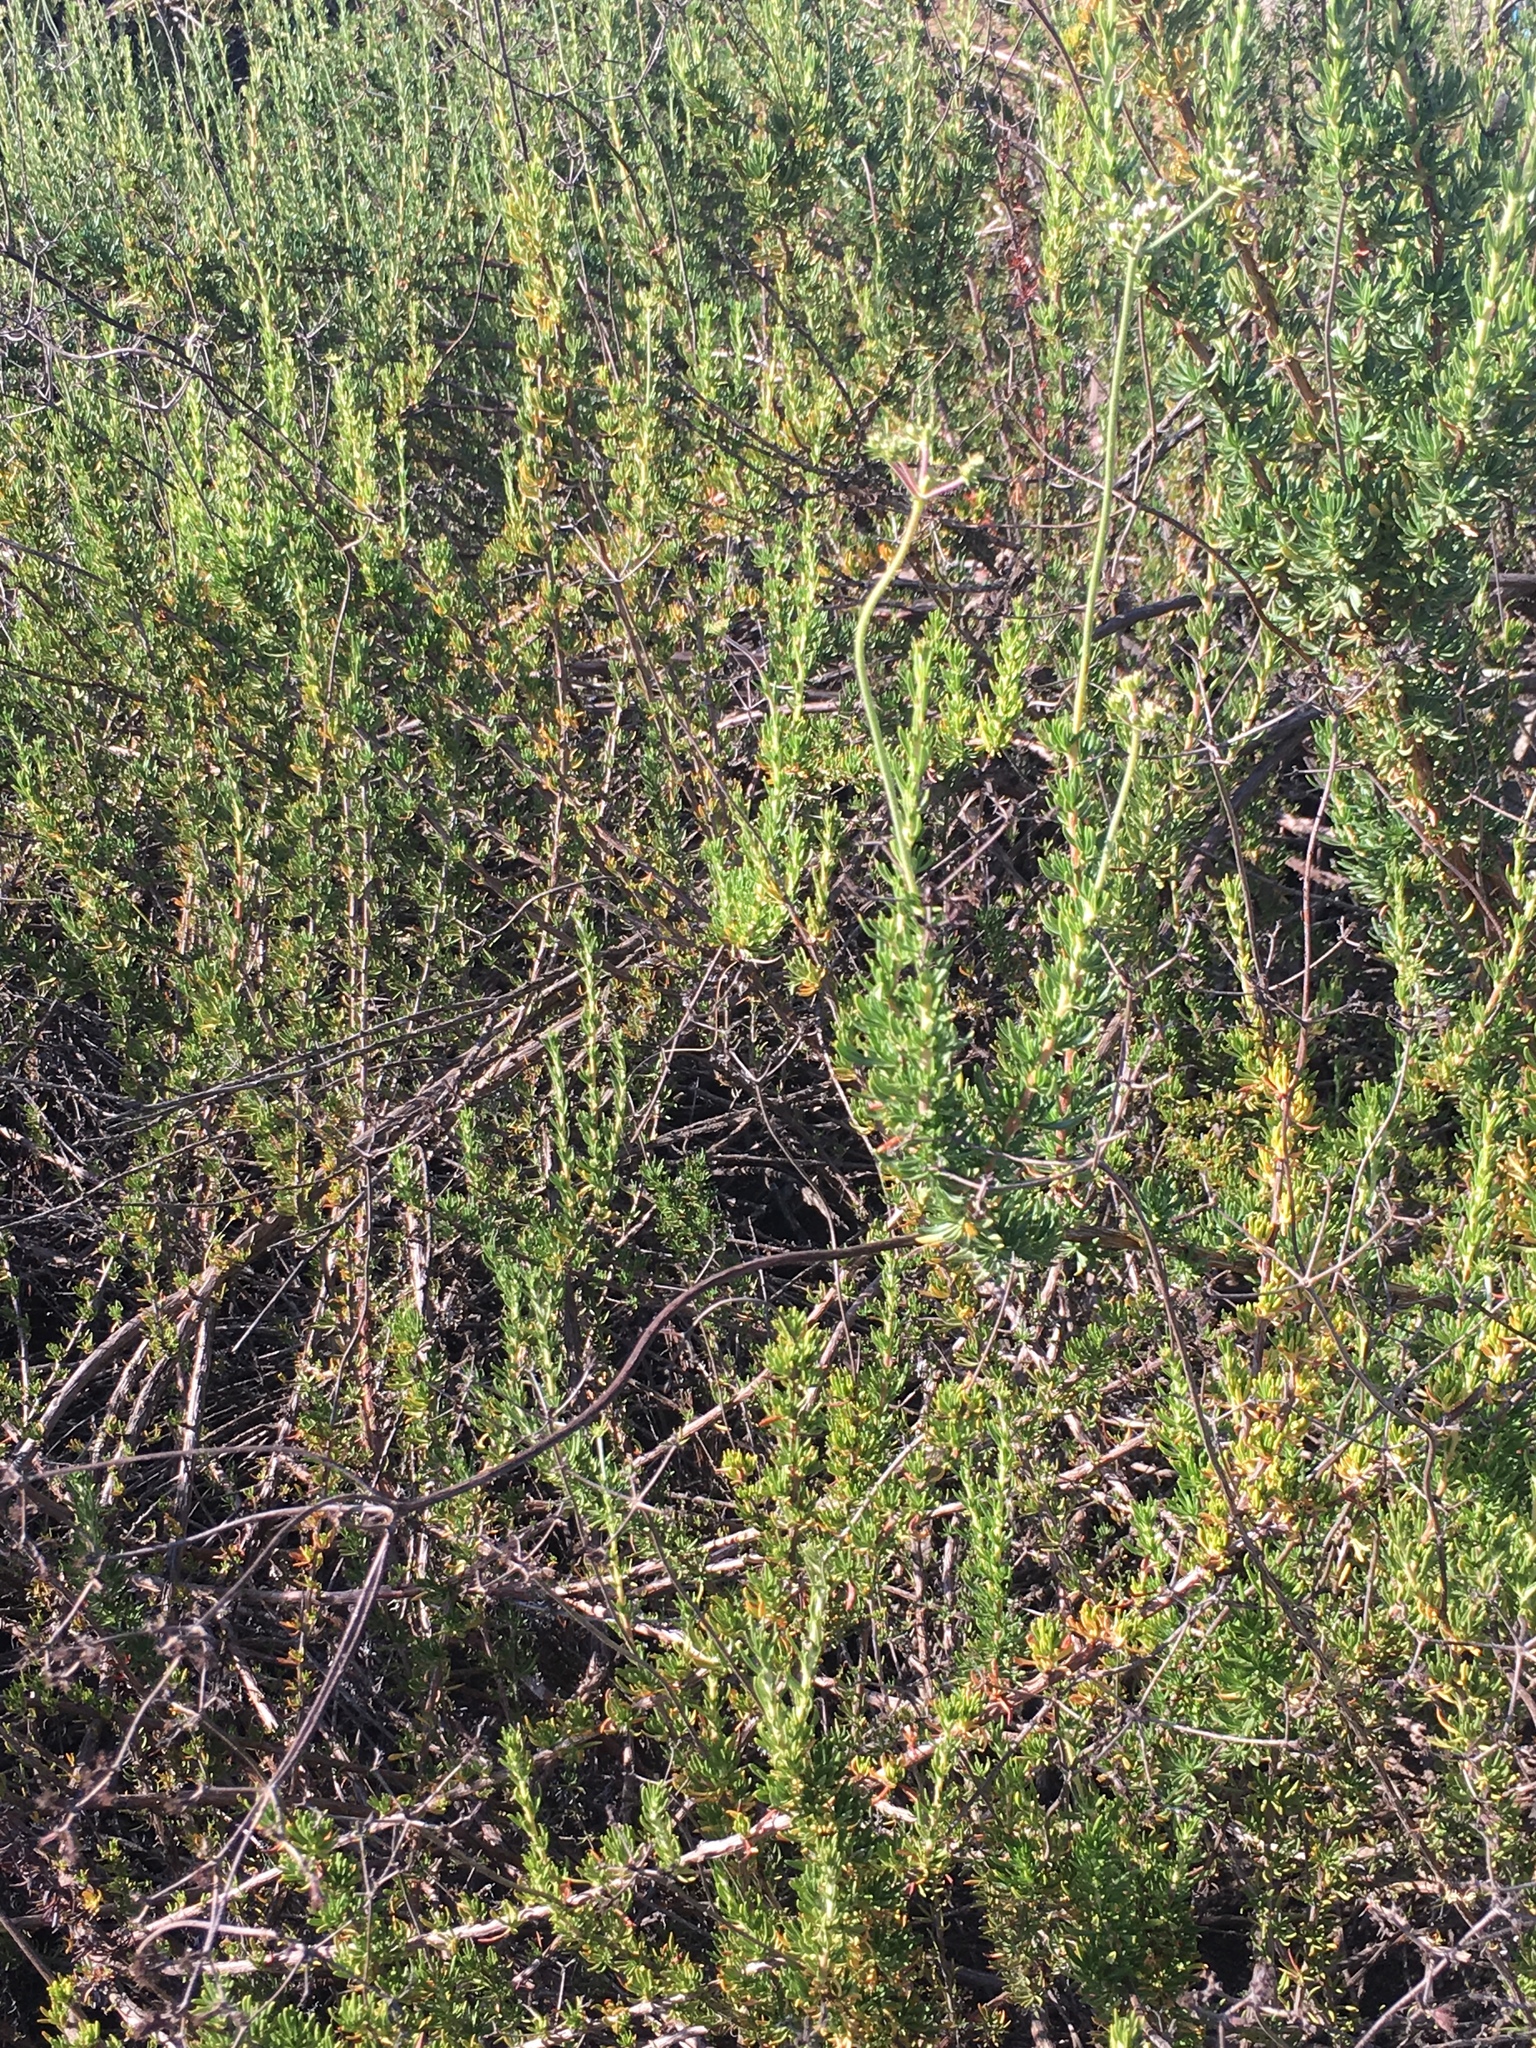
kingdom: Plantae
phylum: Tracheophyta
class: Magnoliopsida
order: Caryophyllales
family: Polygonaceae
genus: Eriogonum
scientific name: Eriogonum fasciculatum
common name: California wild buckwheat
